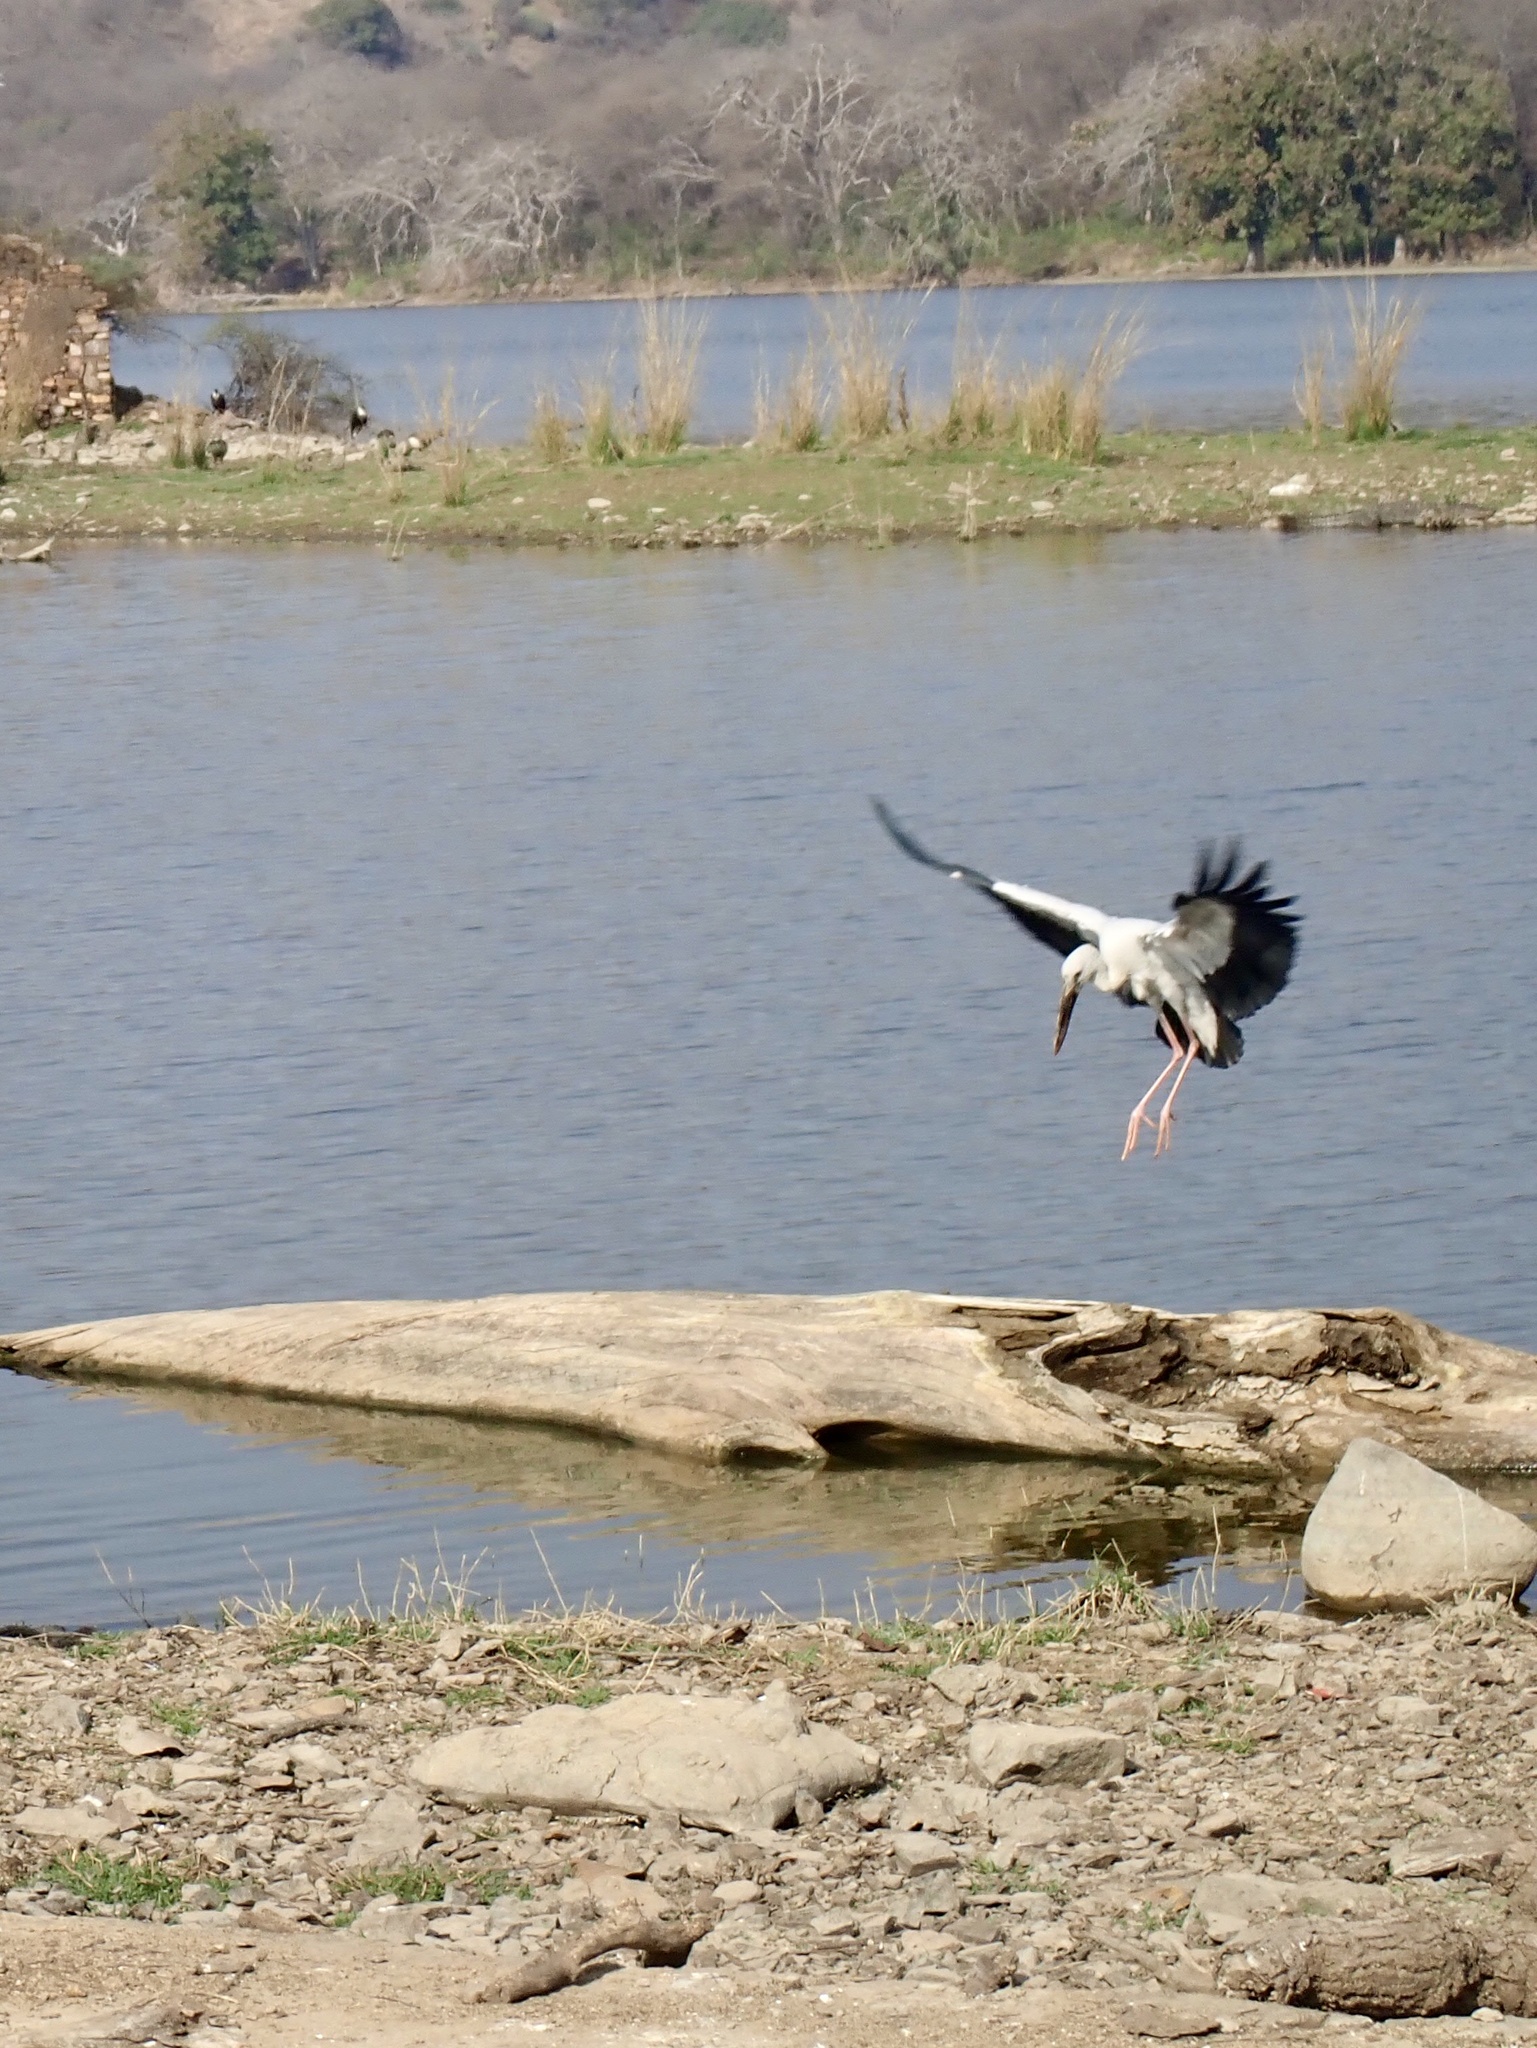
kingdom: Animalia
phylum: Chordata
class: Aves
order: Ciconiiformes
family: Ciconiidae
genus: Anastomus
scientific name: Anastomus oscitans
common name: Asian openbill
